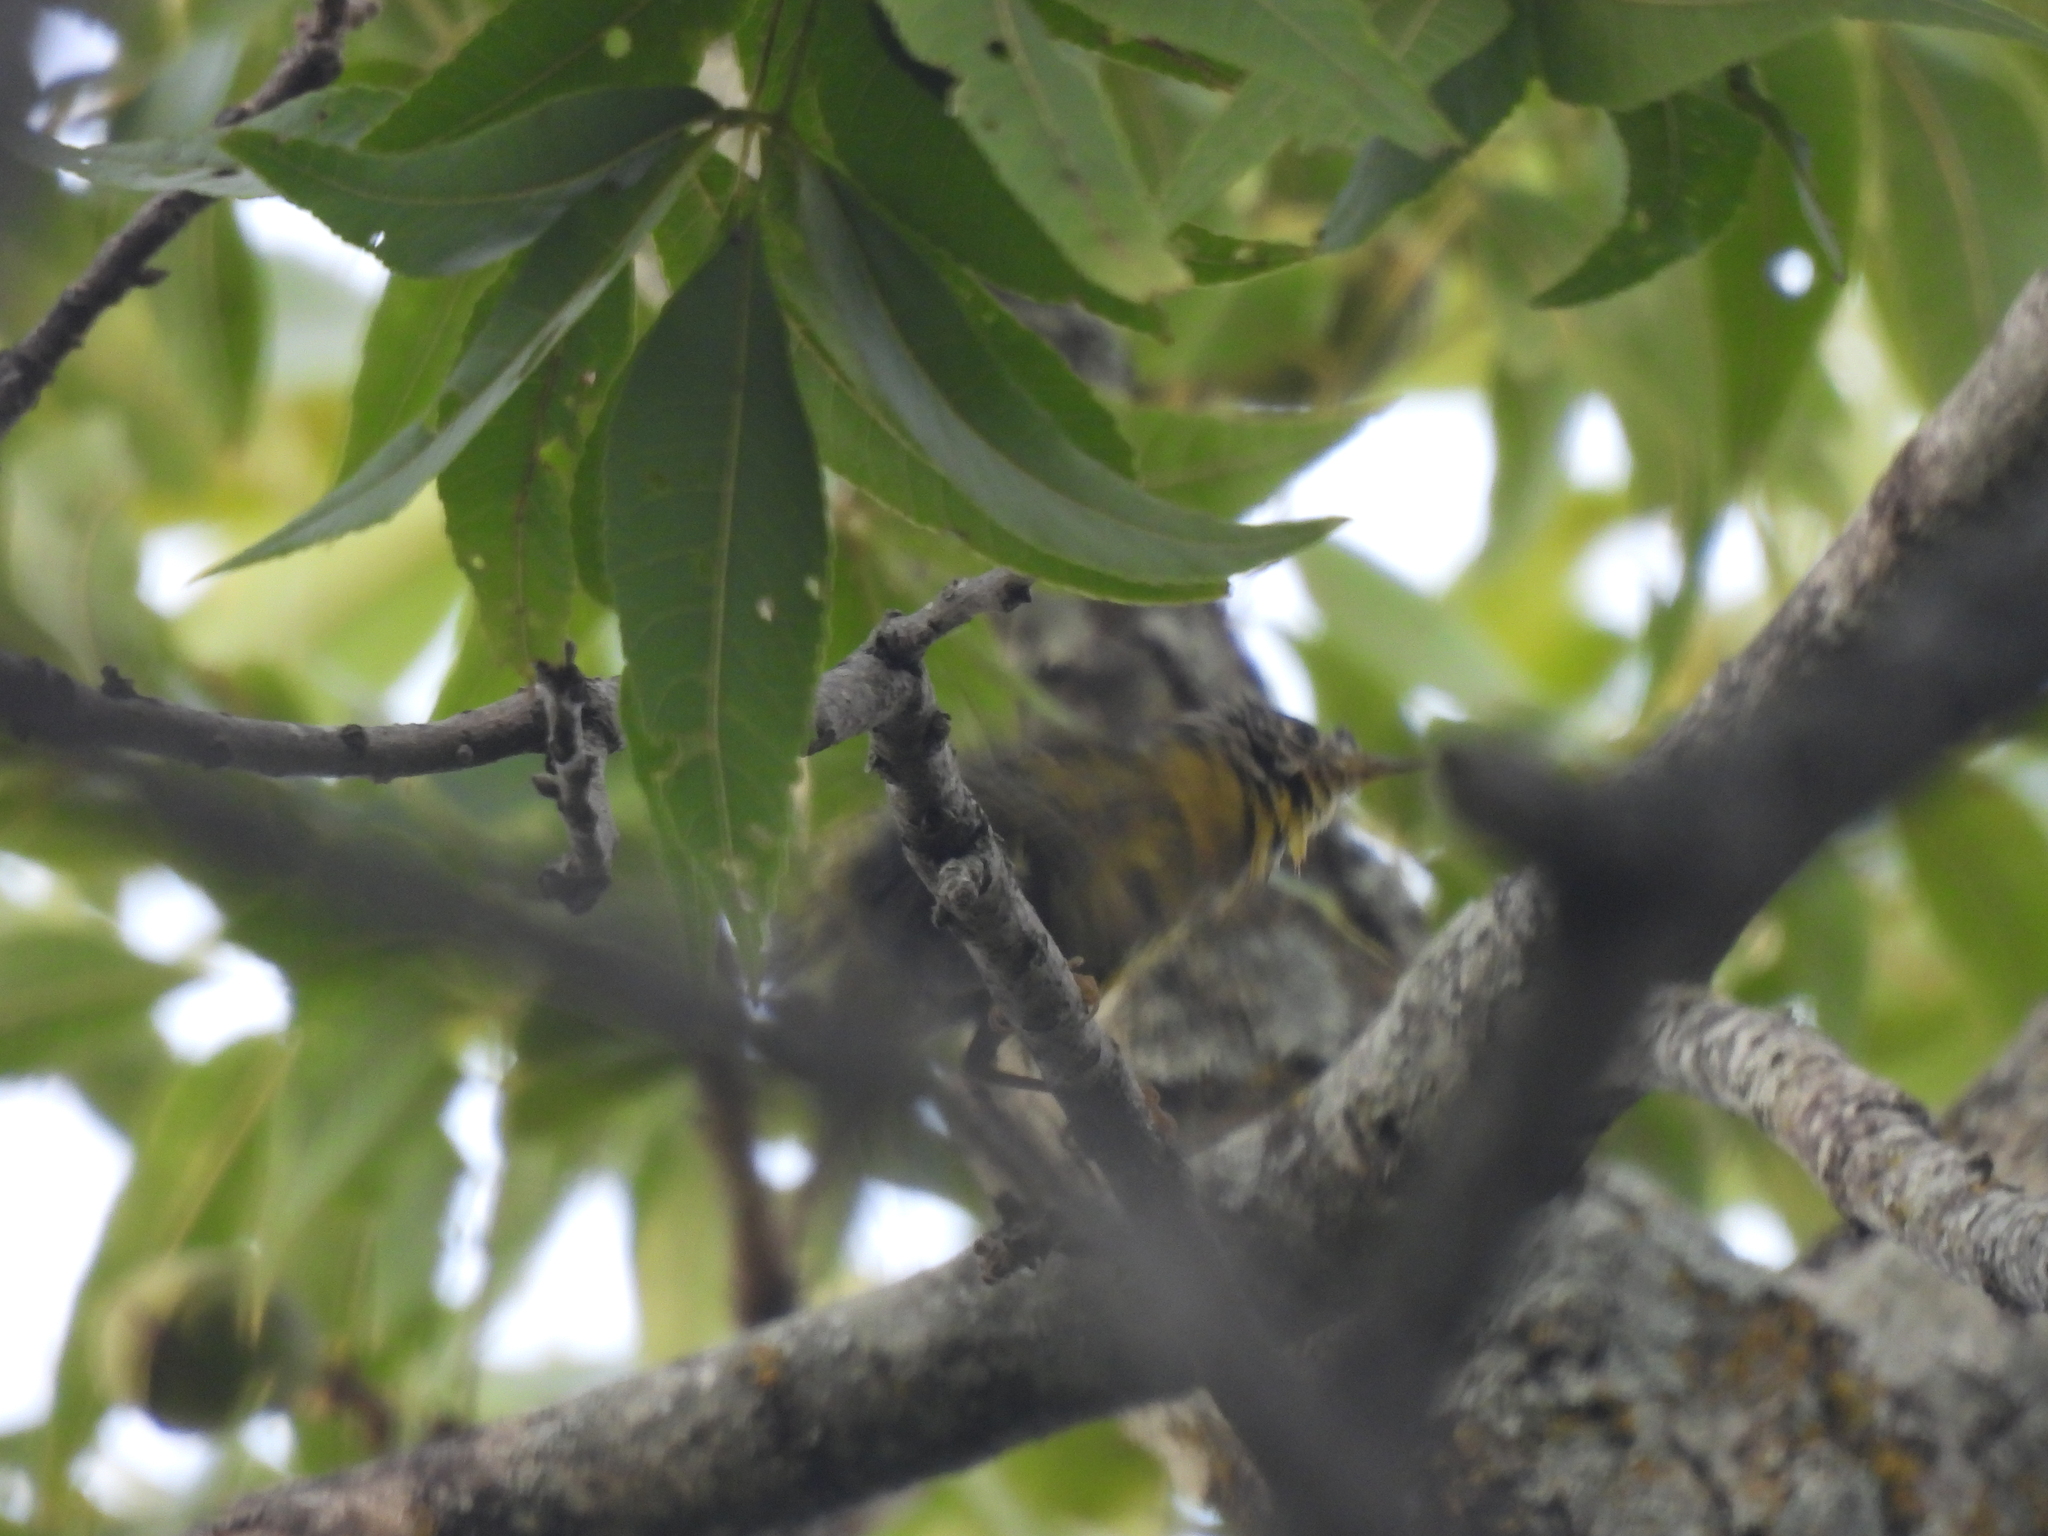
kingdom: Animalia
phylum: Chordata
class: Aves
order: Passeriformes
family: Parulidae
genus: Cardellina
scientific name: Cardellina pusilla
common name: Wilson's warbler
